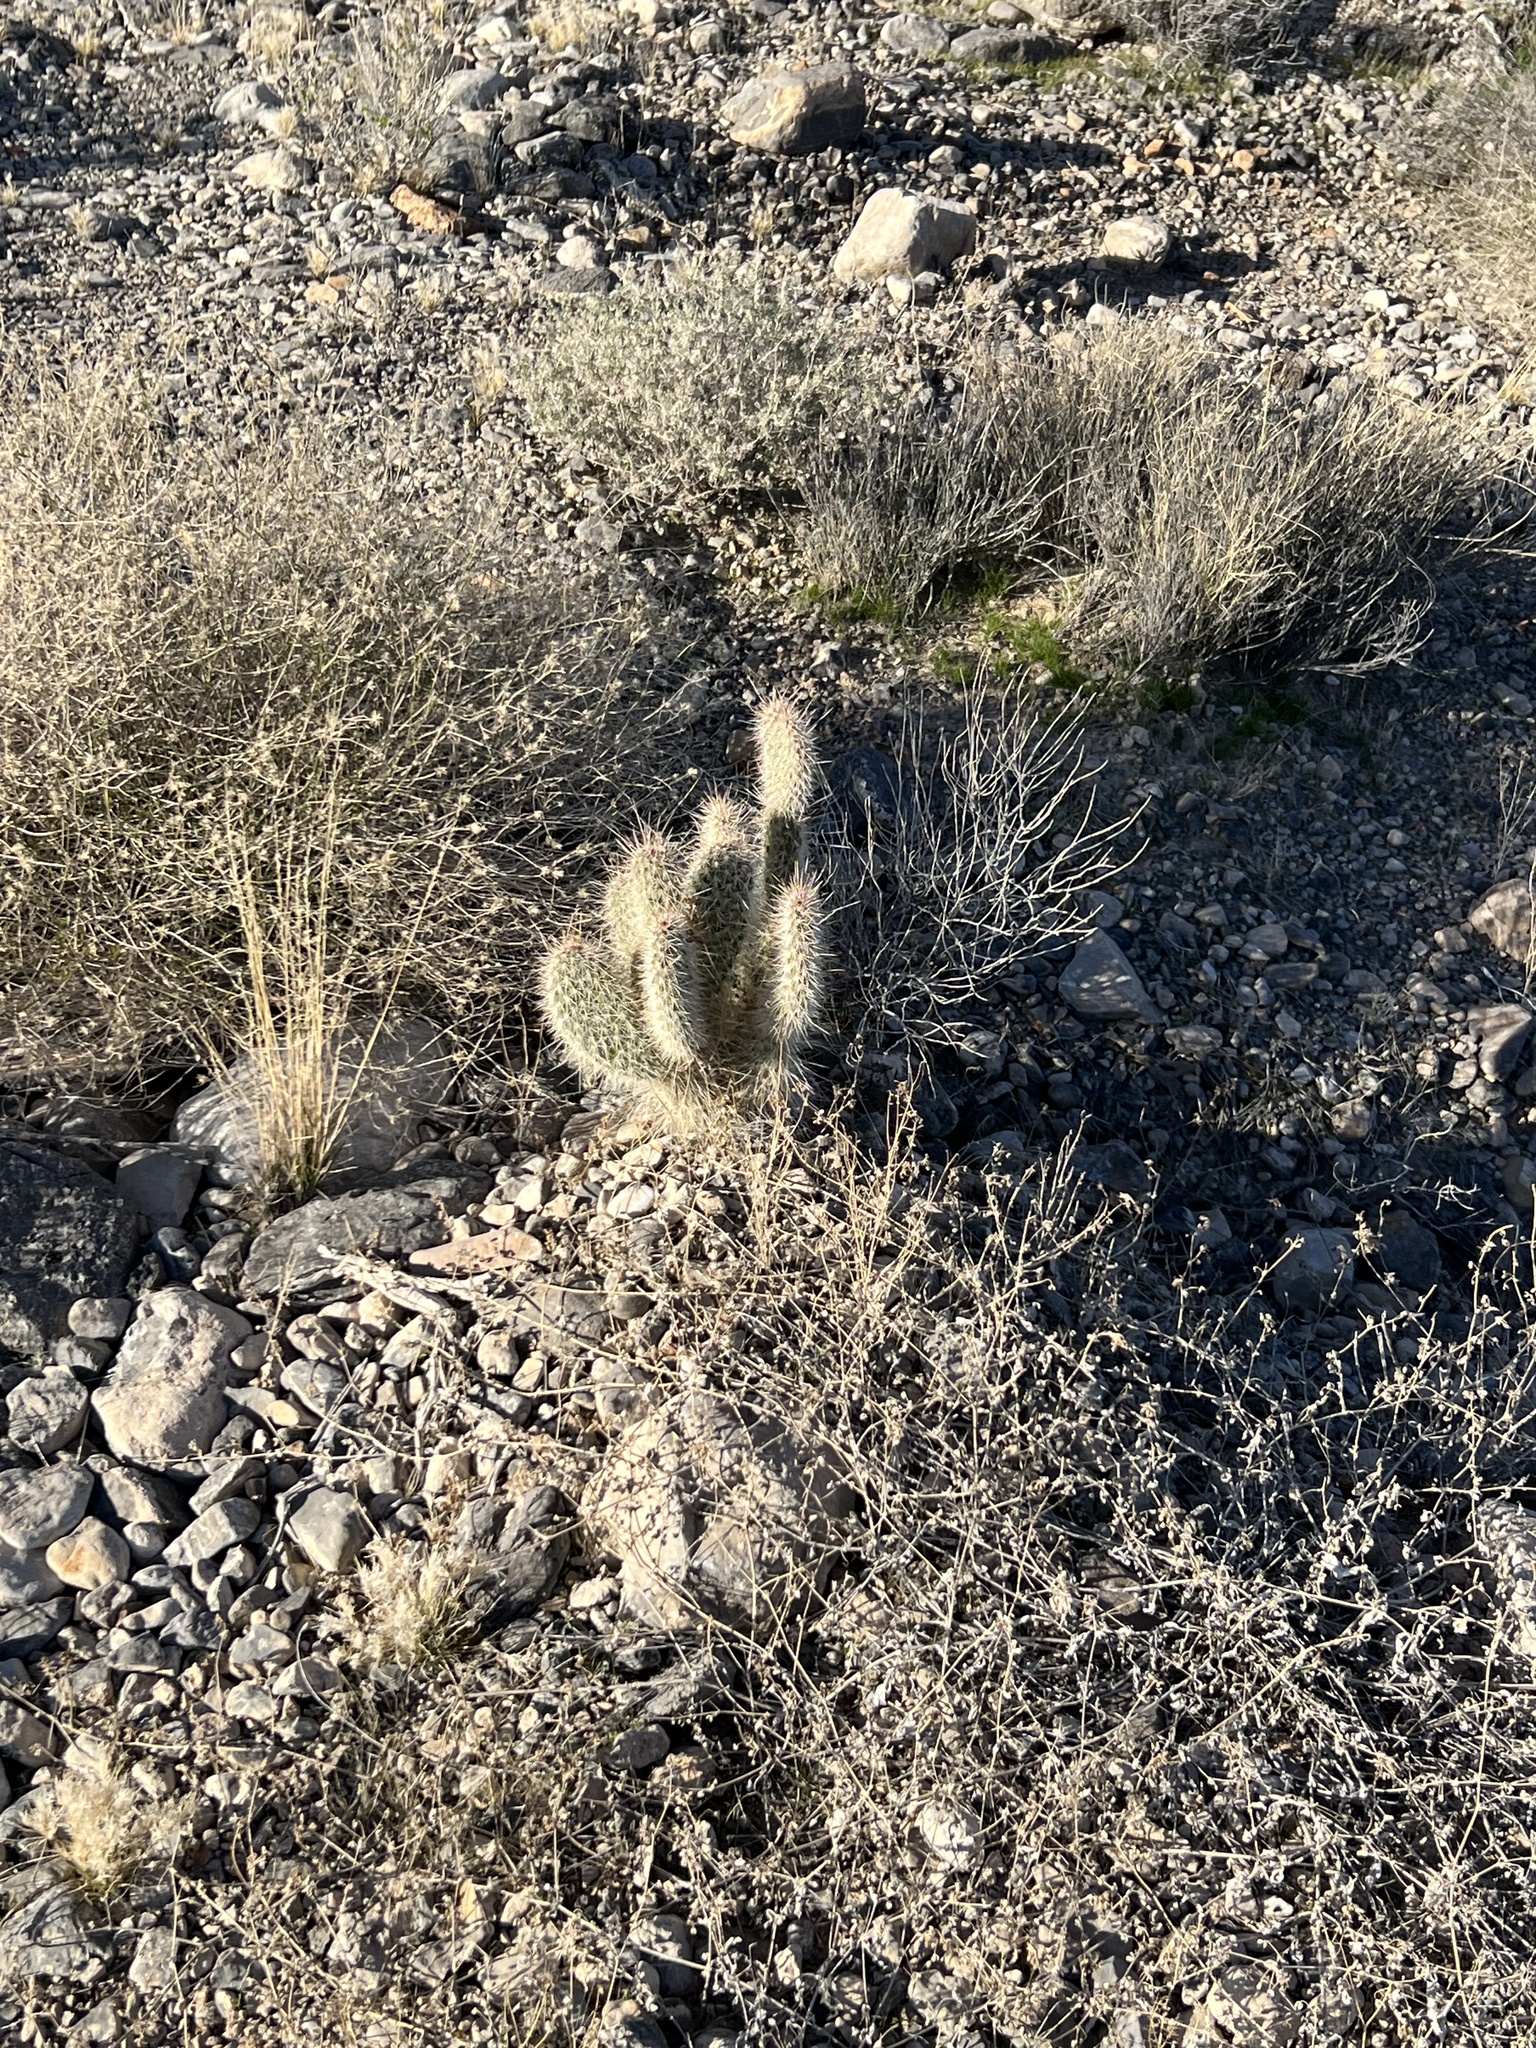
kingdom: Plantae
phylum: Tracheophyta
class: Magnoliopsida
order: Caryophyllales
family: Cactaceae
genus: Opuntia
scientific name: Opuntia polyacantha
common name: Plains prickly-pear
